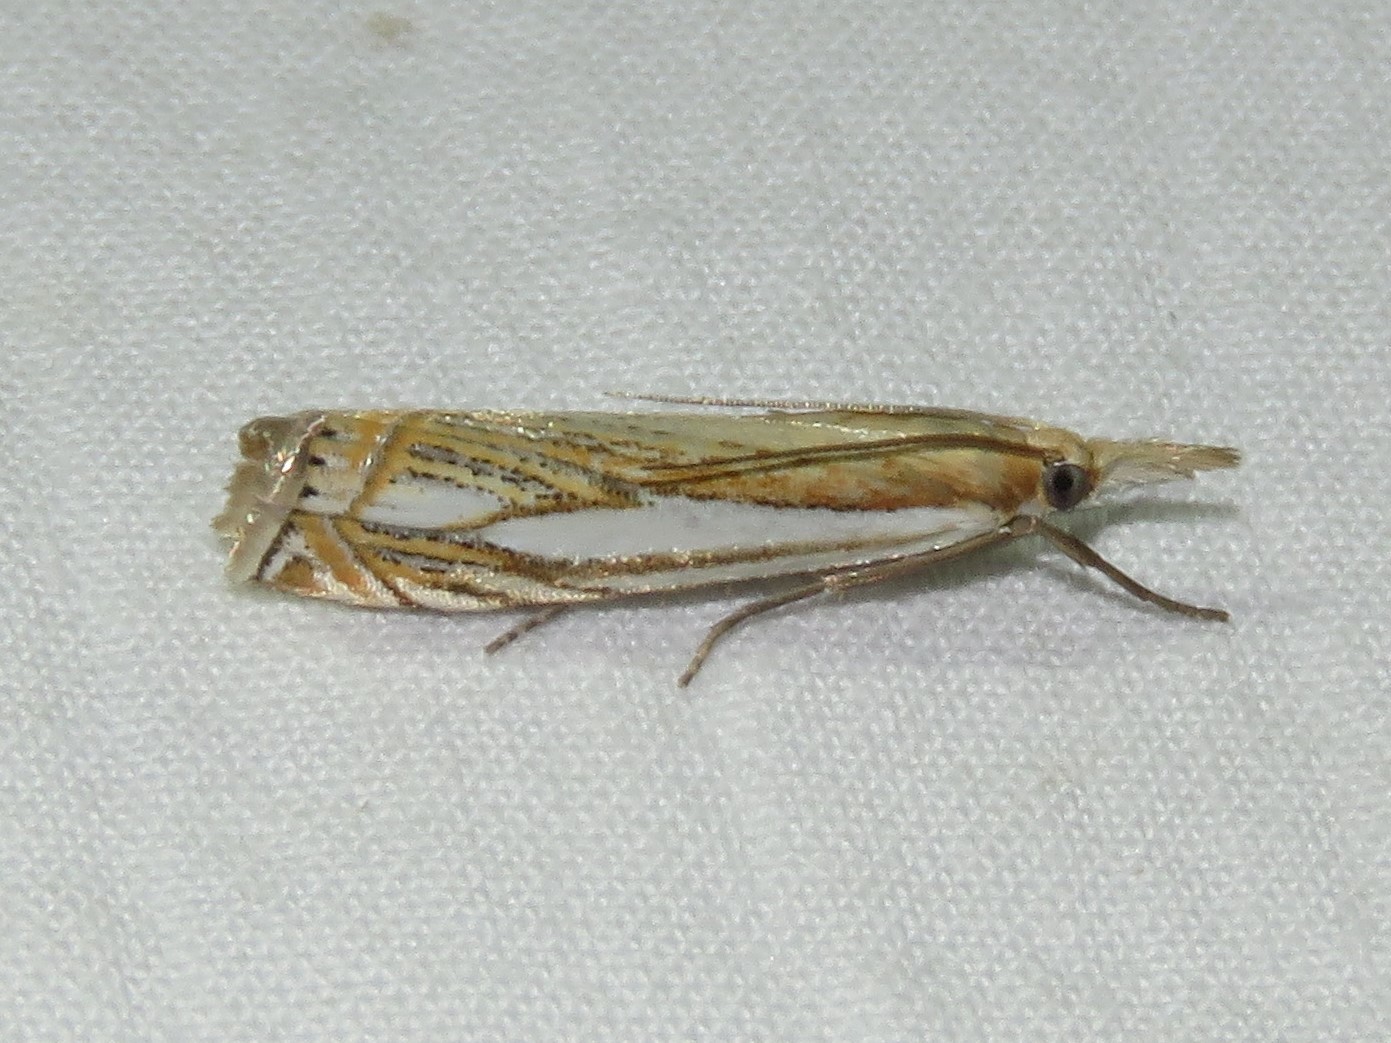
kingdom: Animalia
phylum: Arthropoda
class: Insecta
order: Lepidoptera
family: Crambidae
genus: Crambus
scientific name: Crambus saltuellus
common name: Pasture grass-veneer
